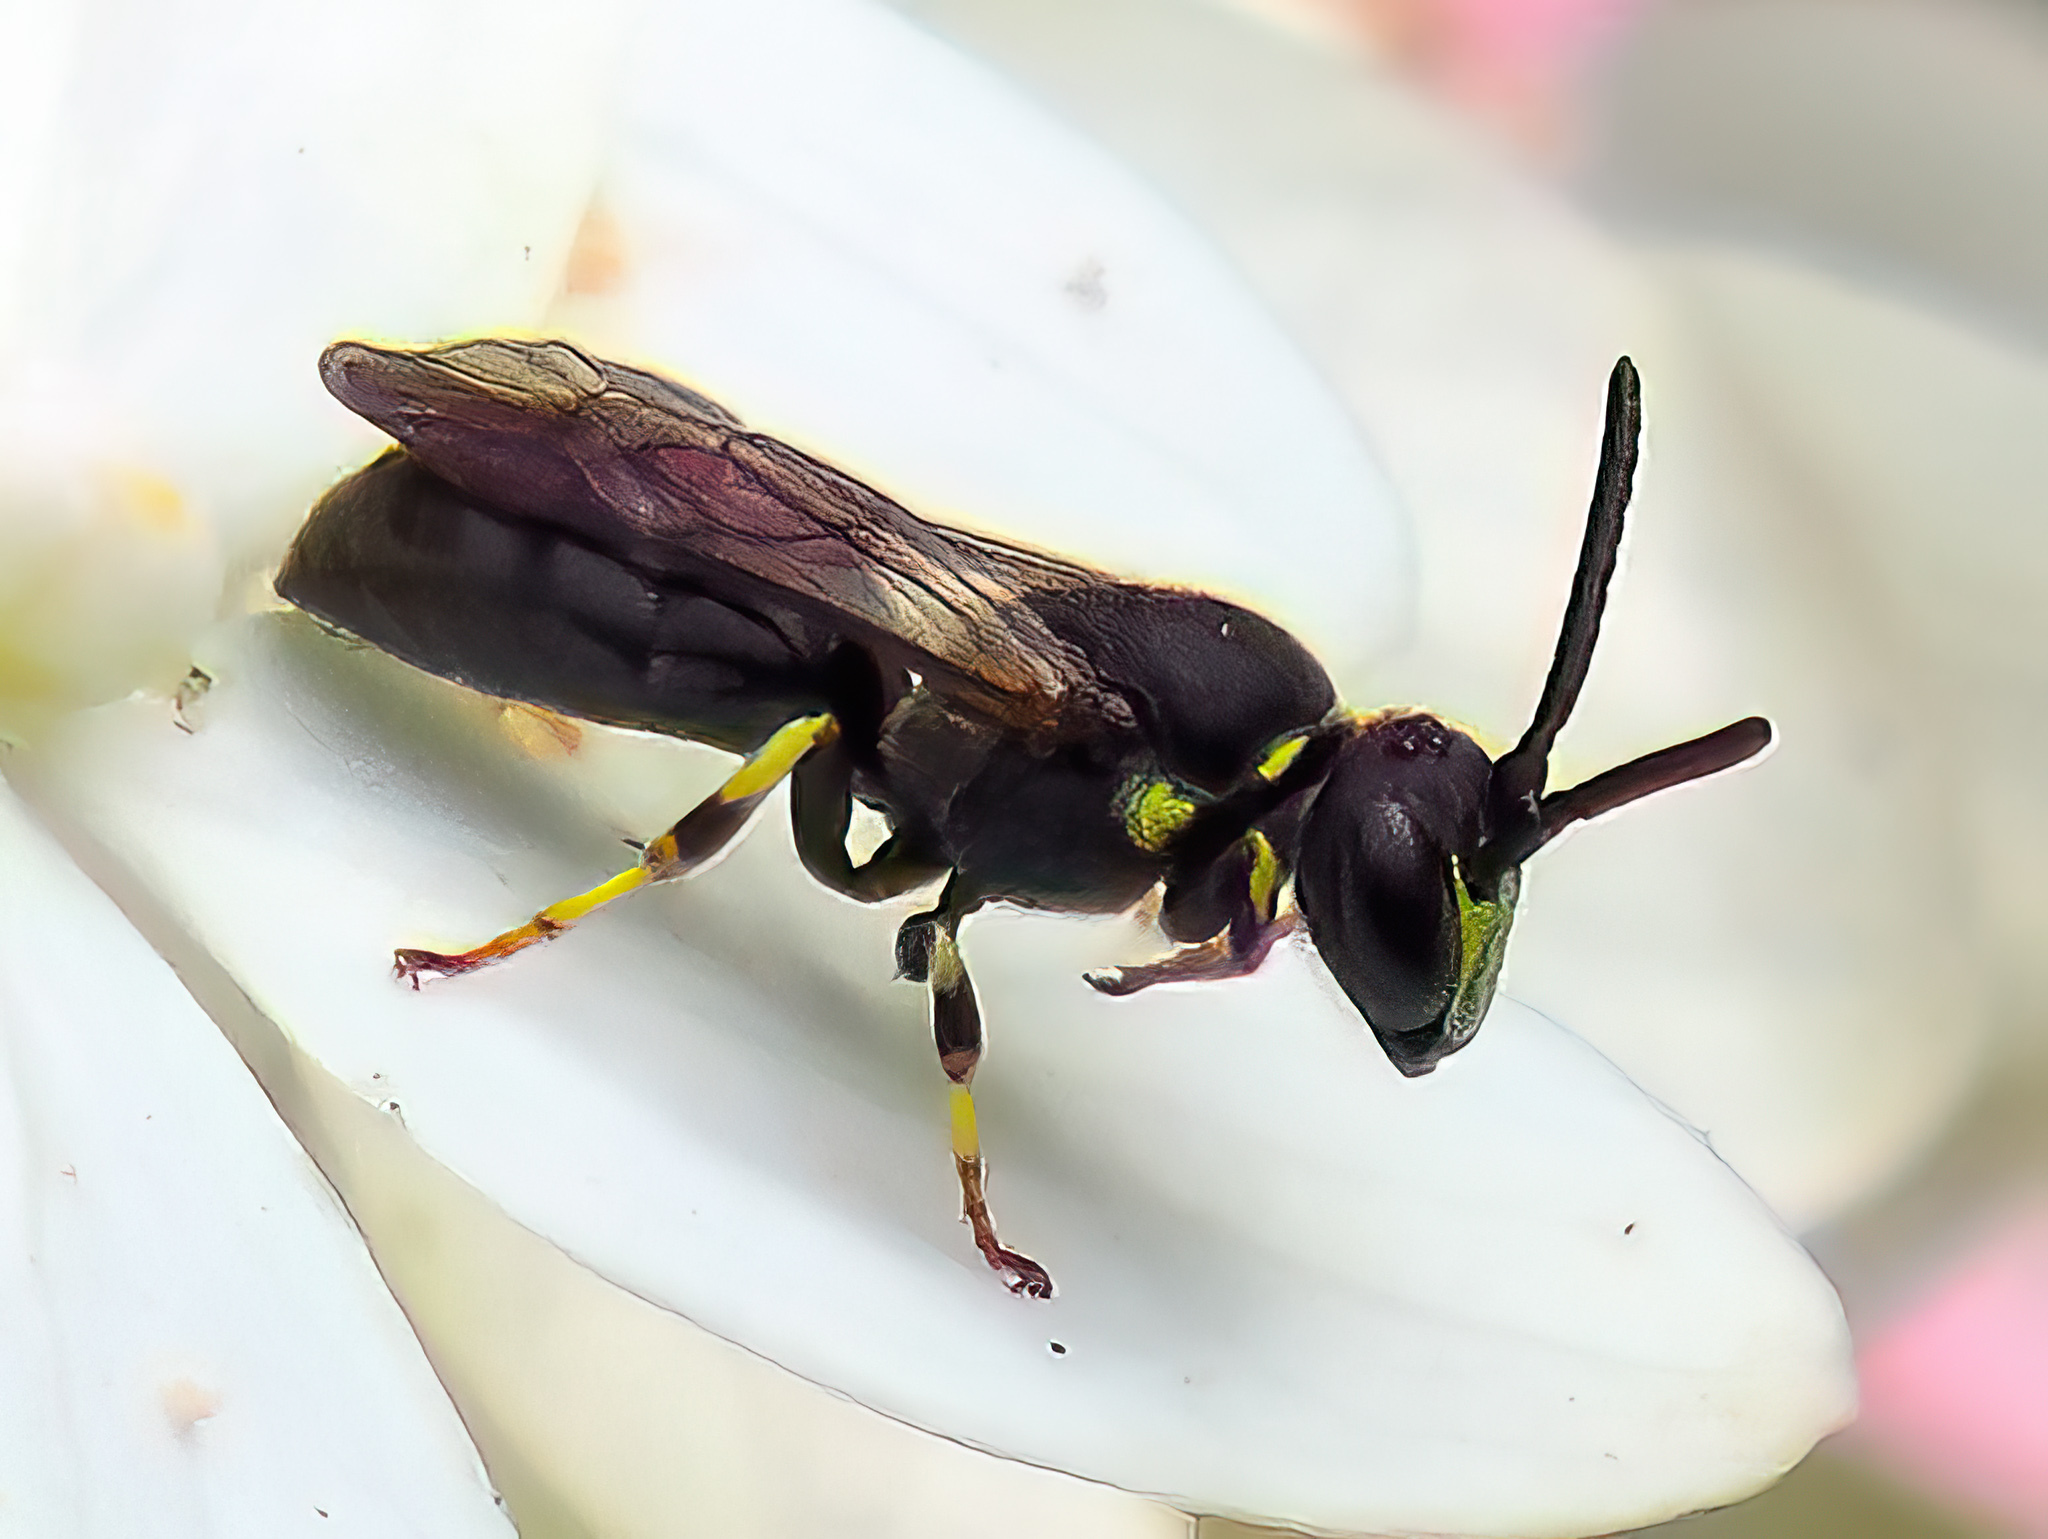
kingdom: Animalia
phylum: Arthropoda
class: Insecta
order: Hymenoptera
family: Colletidae
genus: Hylaeus
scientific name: Hylaeus modestus
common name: Yellow-faced bee
